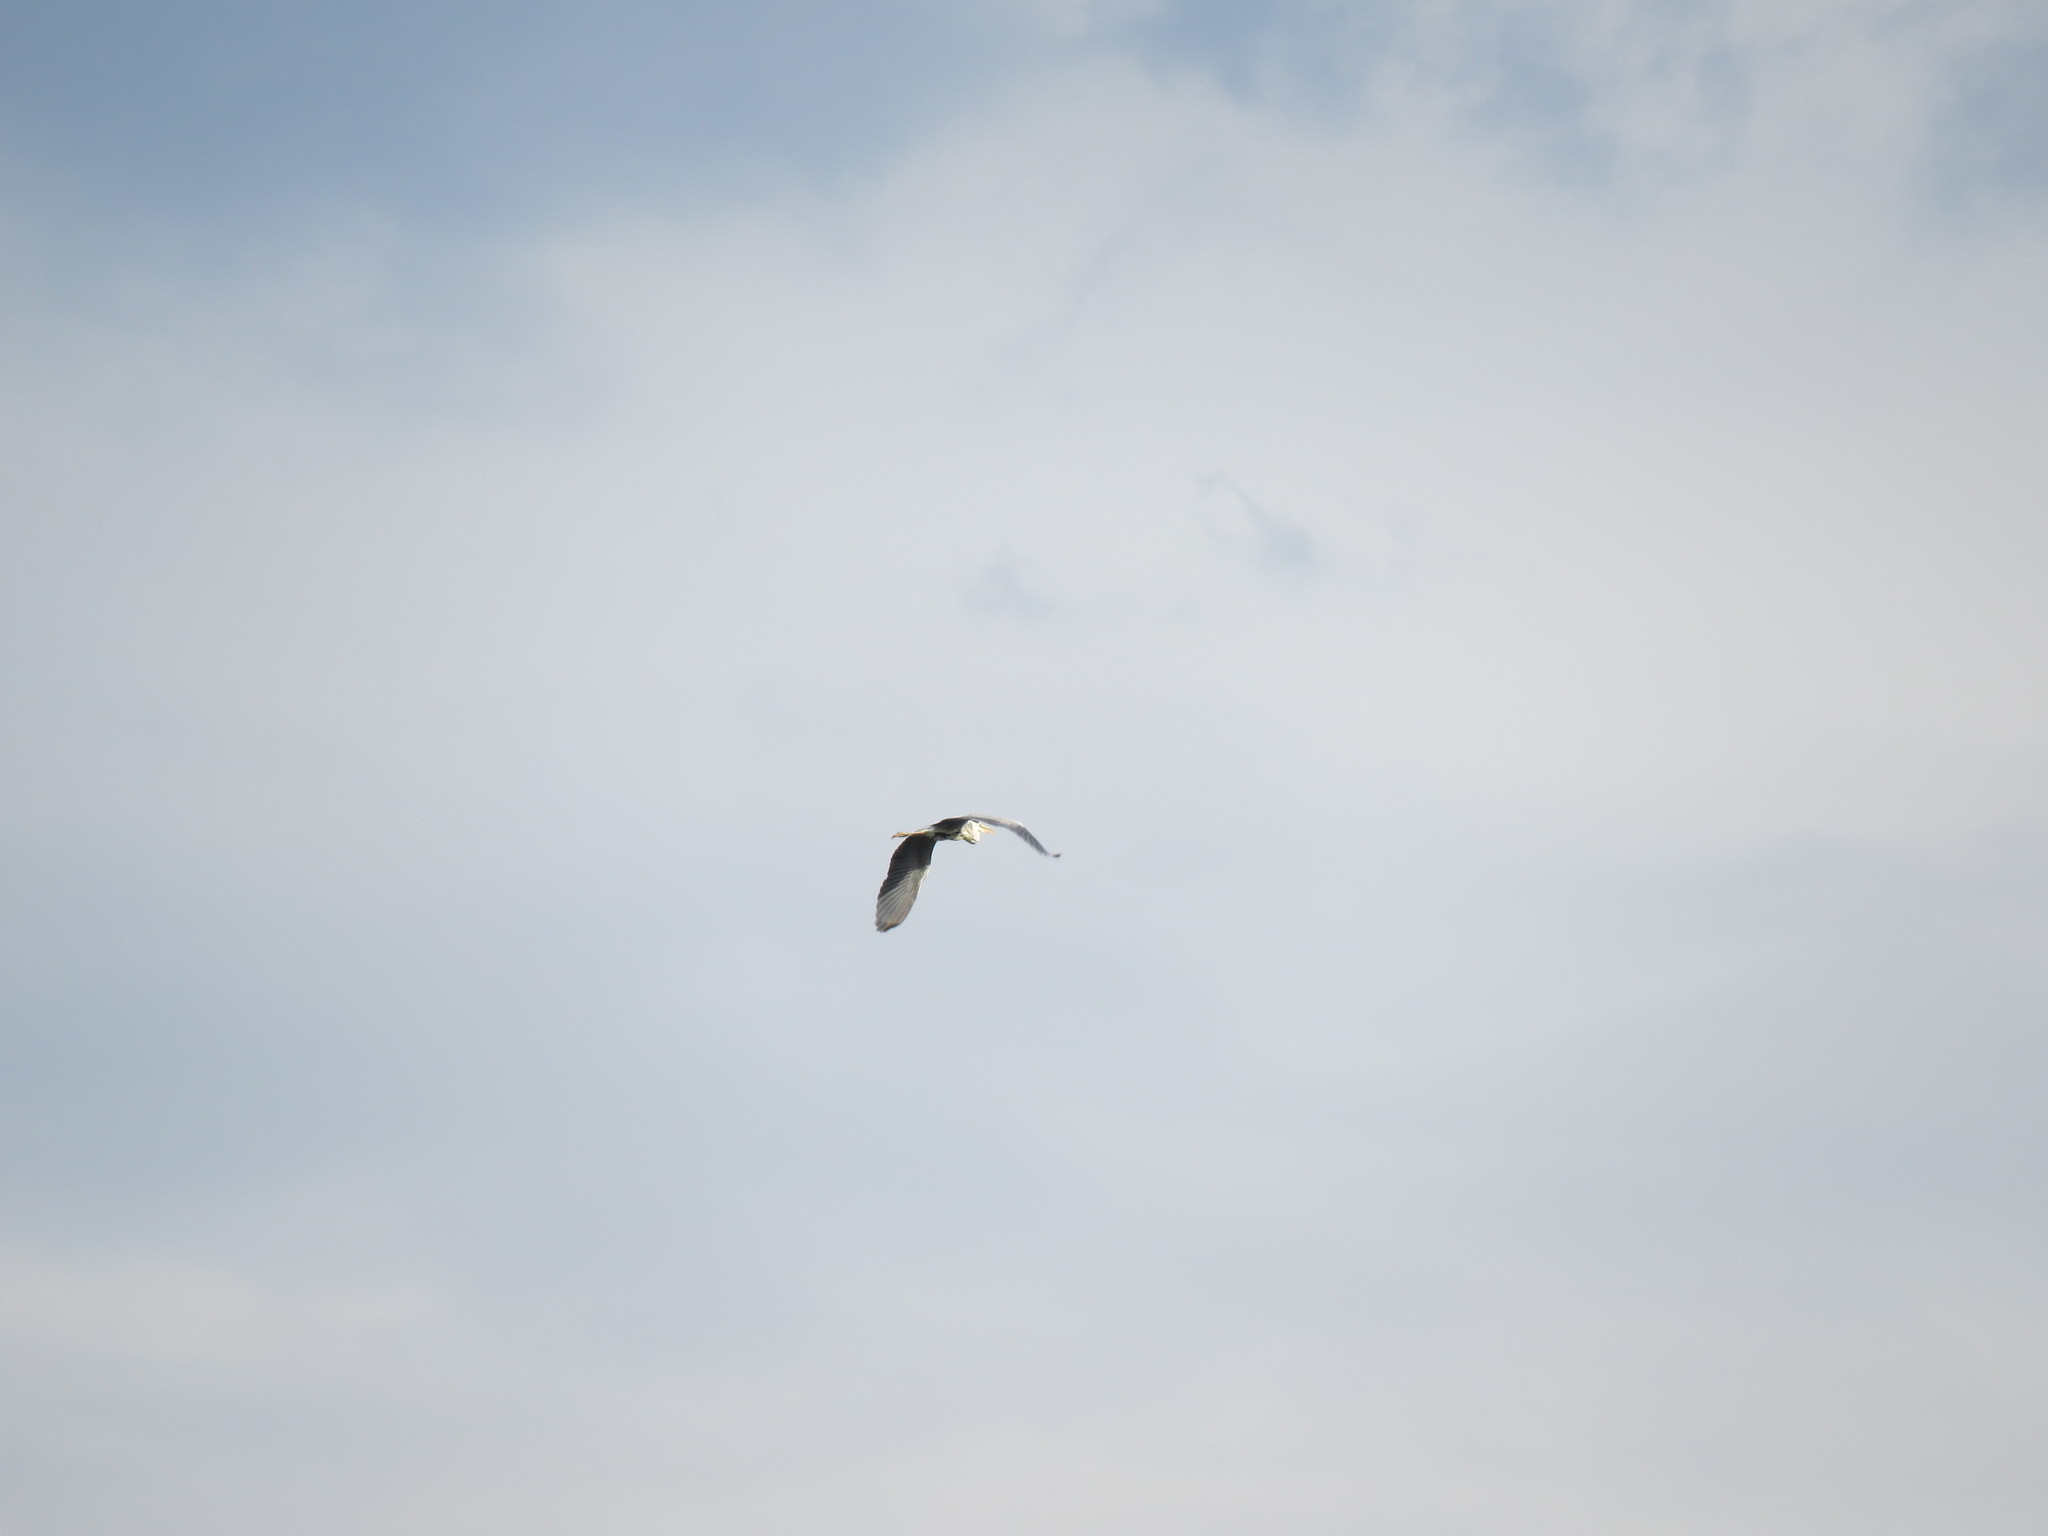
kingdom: Animalia
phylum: Chordata
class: Aves
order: Pelecaniformes
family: Ardeidae
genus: Ardea
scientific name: Ardea cinerea
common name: Grey heron
